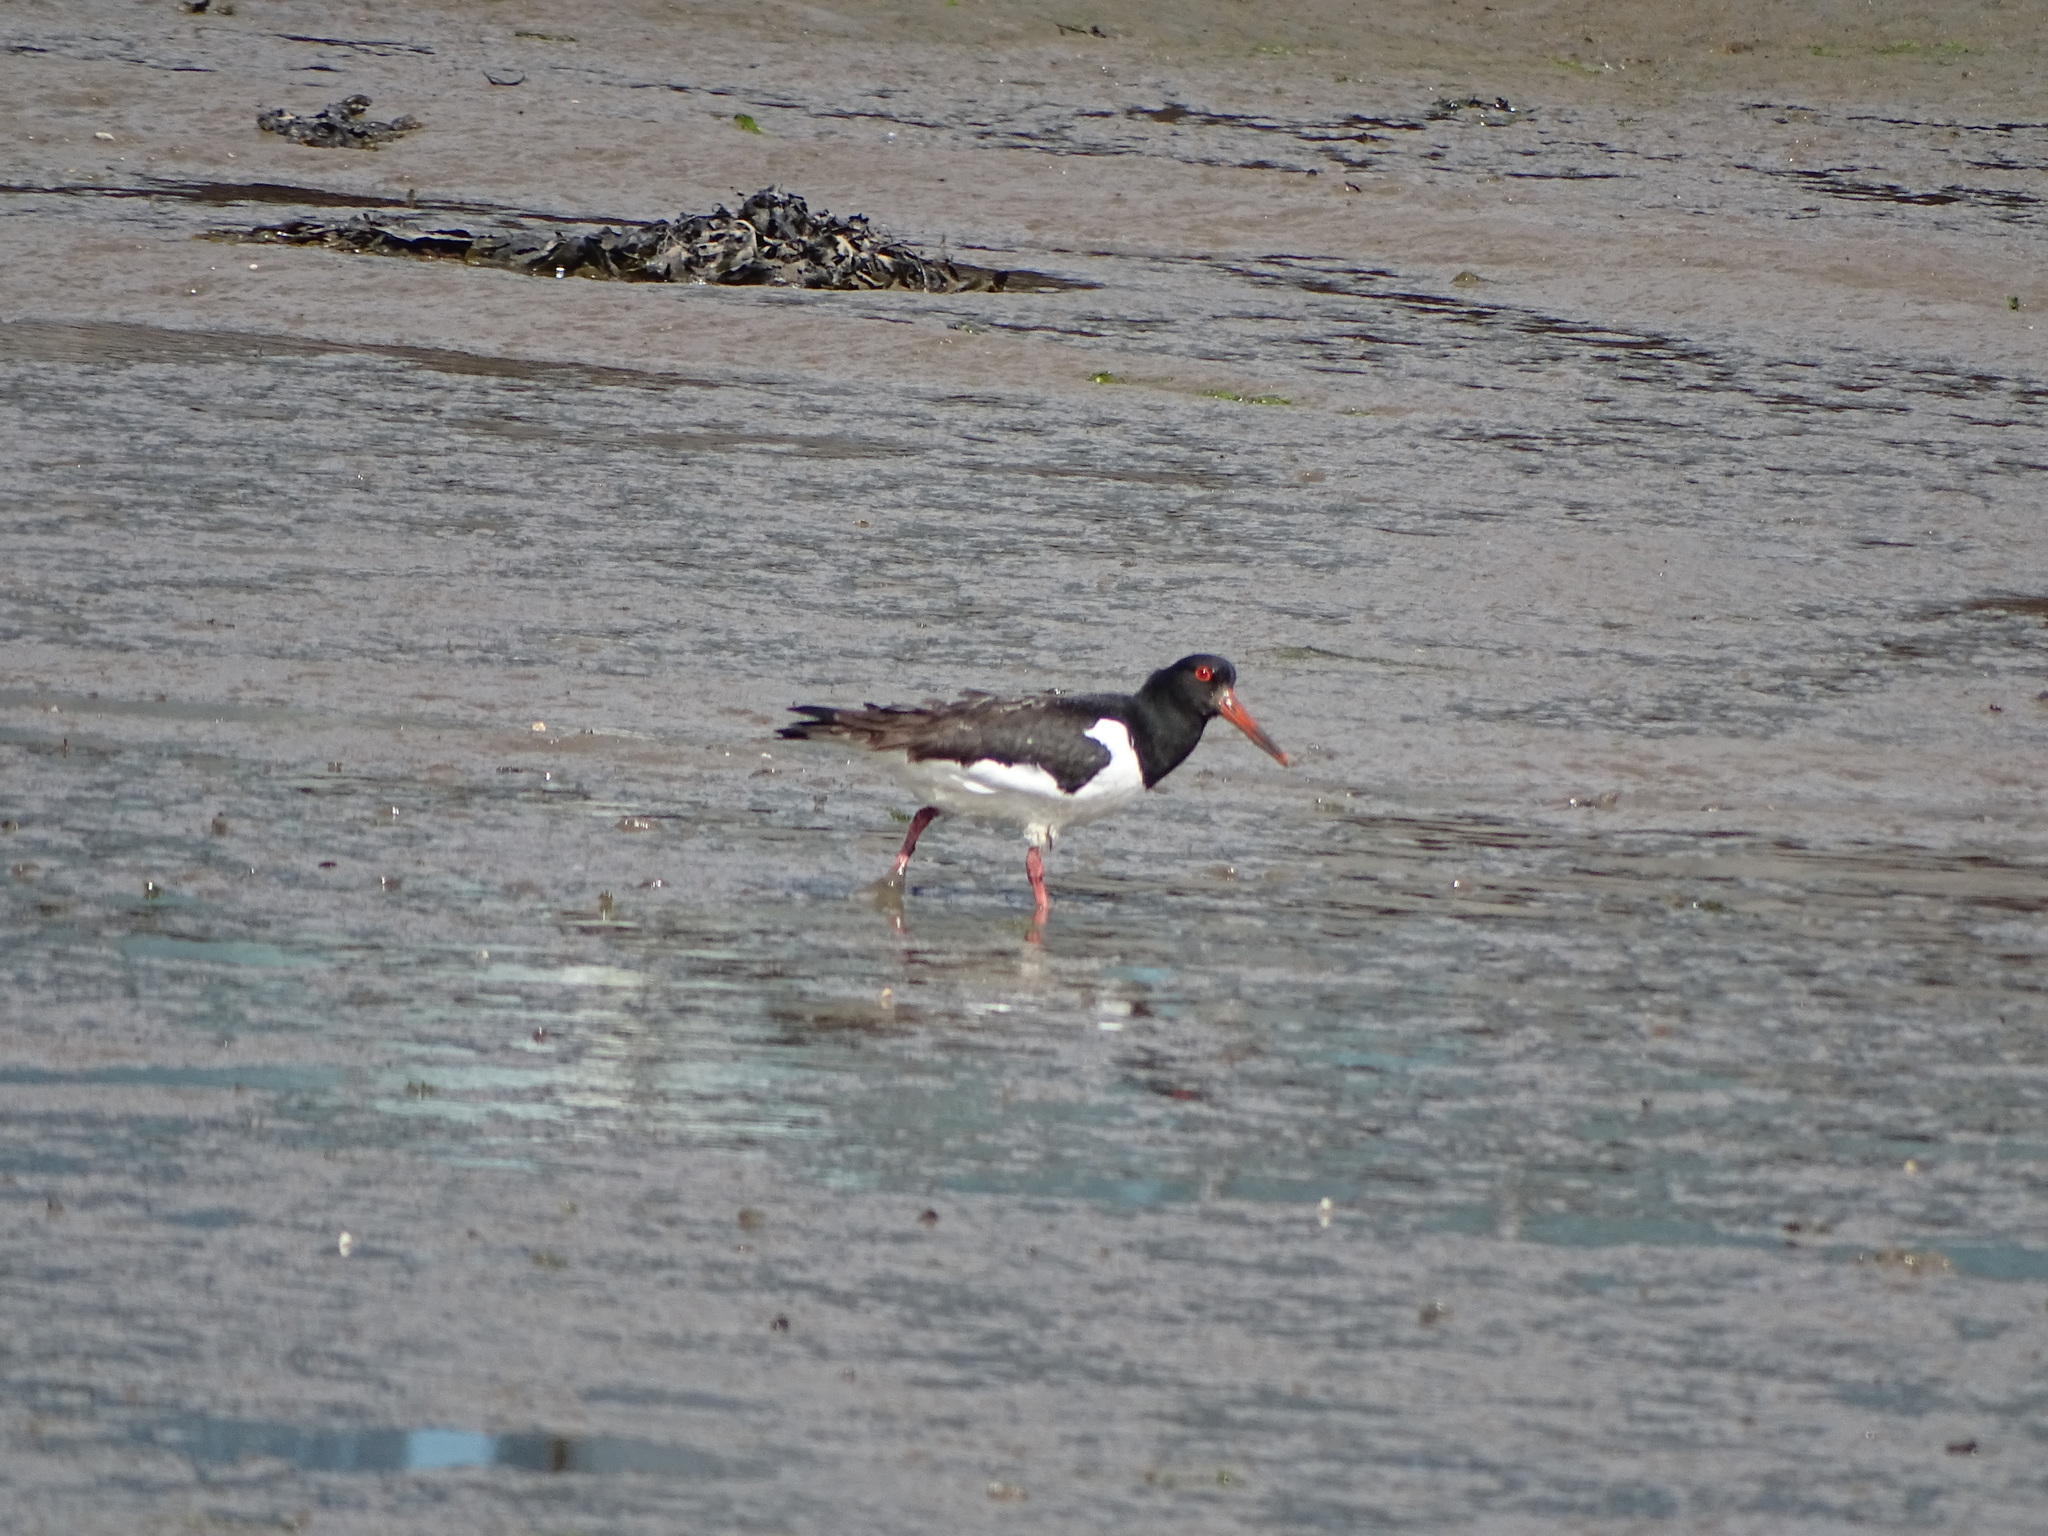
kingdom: Animalia
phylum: Chordata
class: Aves
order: Charadriiformes
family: Haematopodidae
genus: Haematopus
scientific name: Haematopus ostralegus
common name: Eurasian oystercatcher
